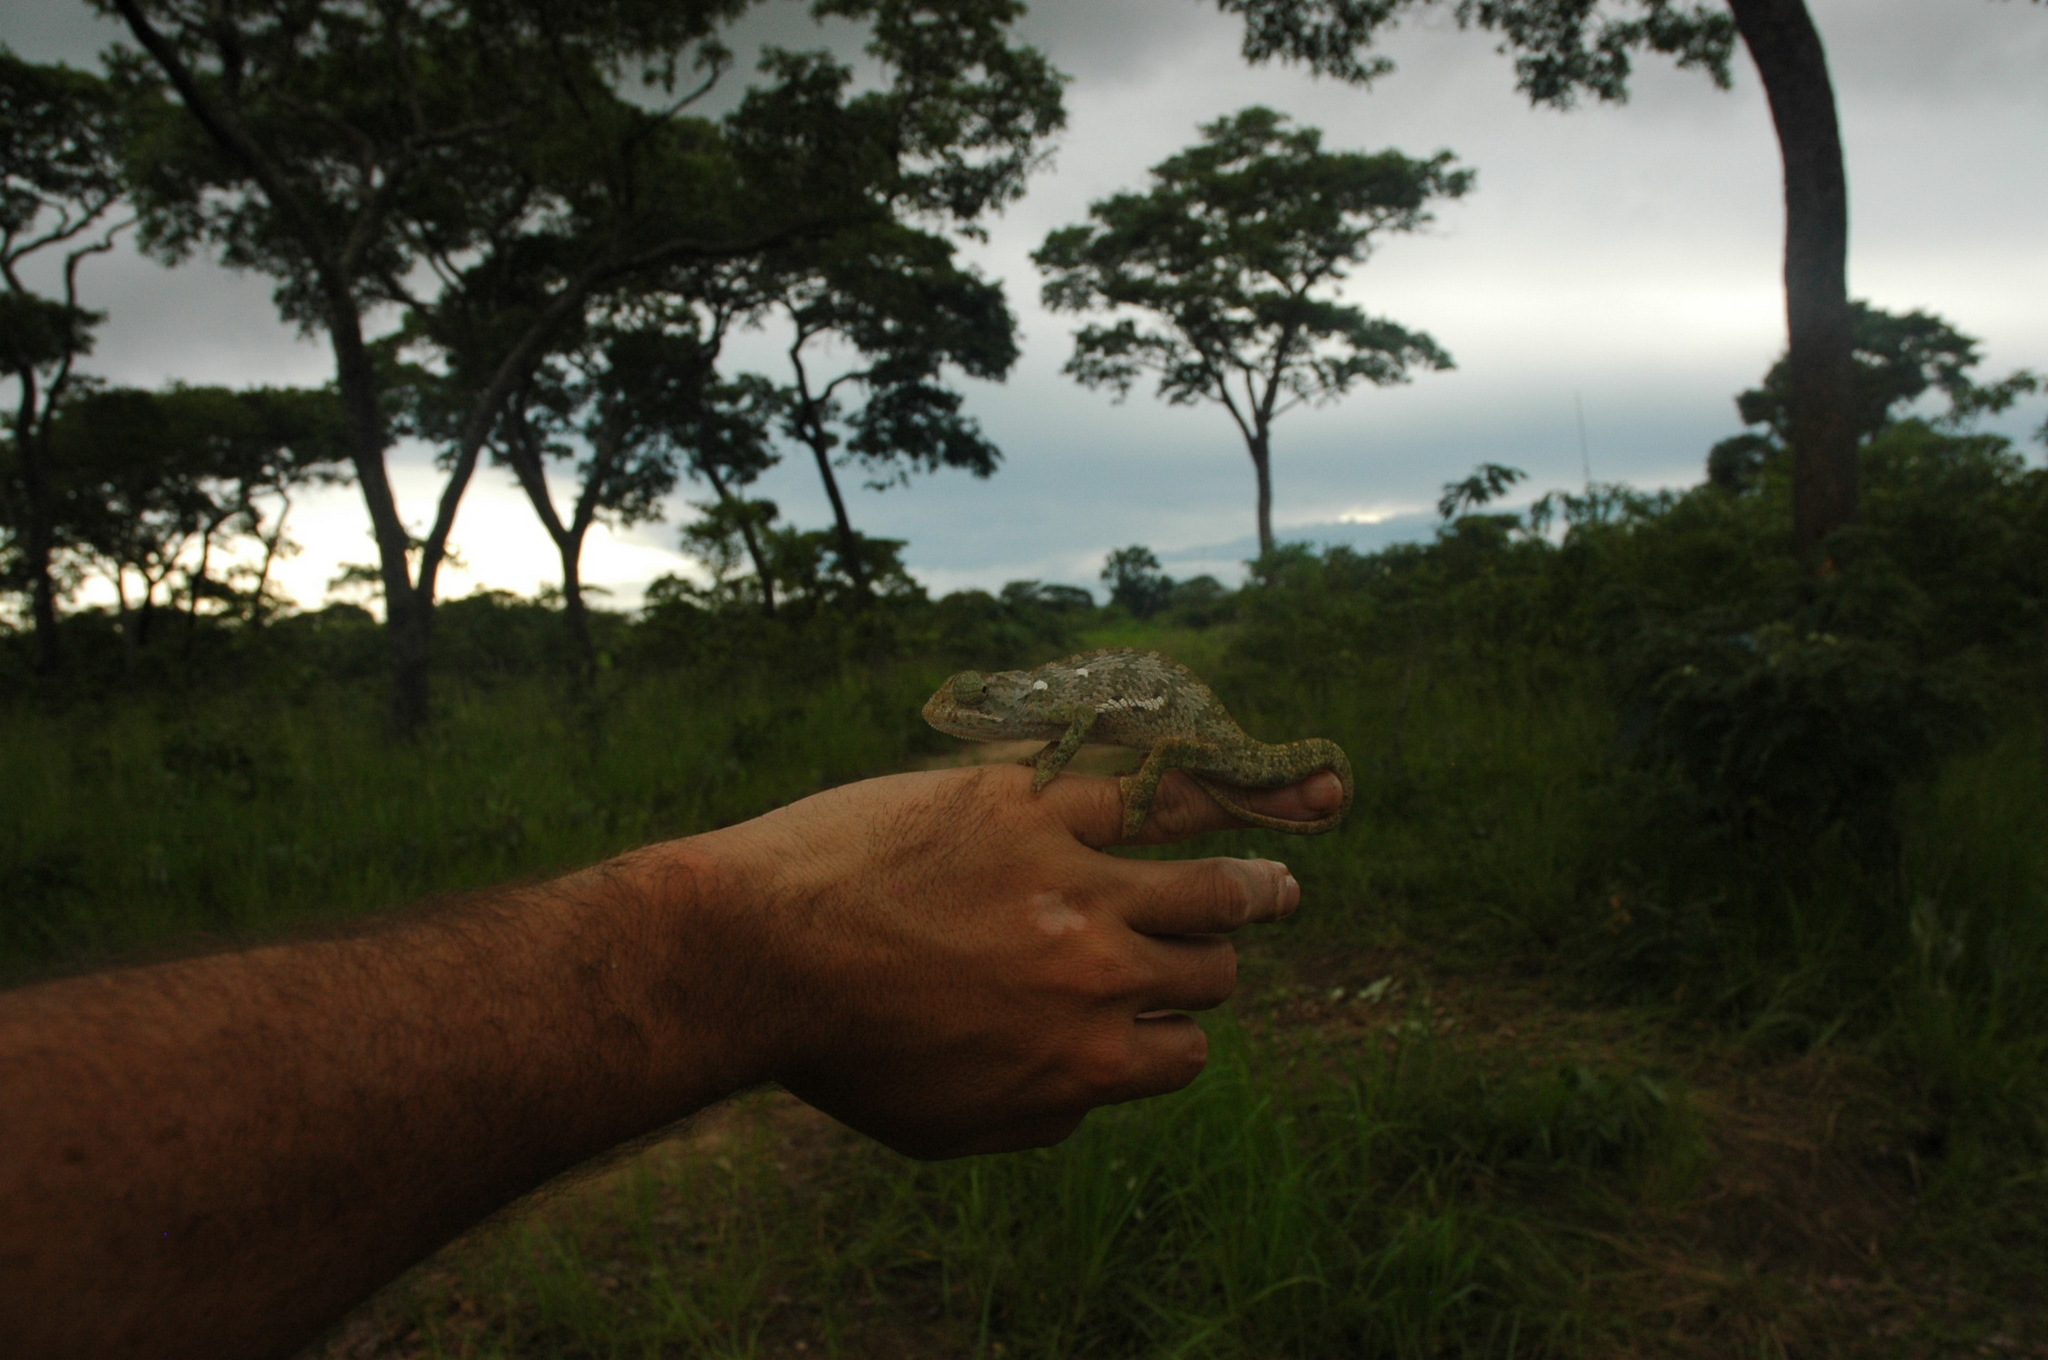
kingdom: Animalia
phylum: Chordata
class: Squamata
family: Chamaeleonidae
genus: Chamaeleo
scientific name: Chamaeleo dilepis
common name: Flapneck chameleon
